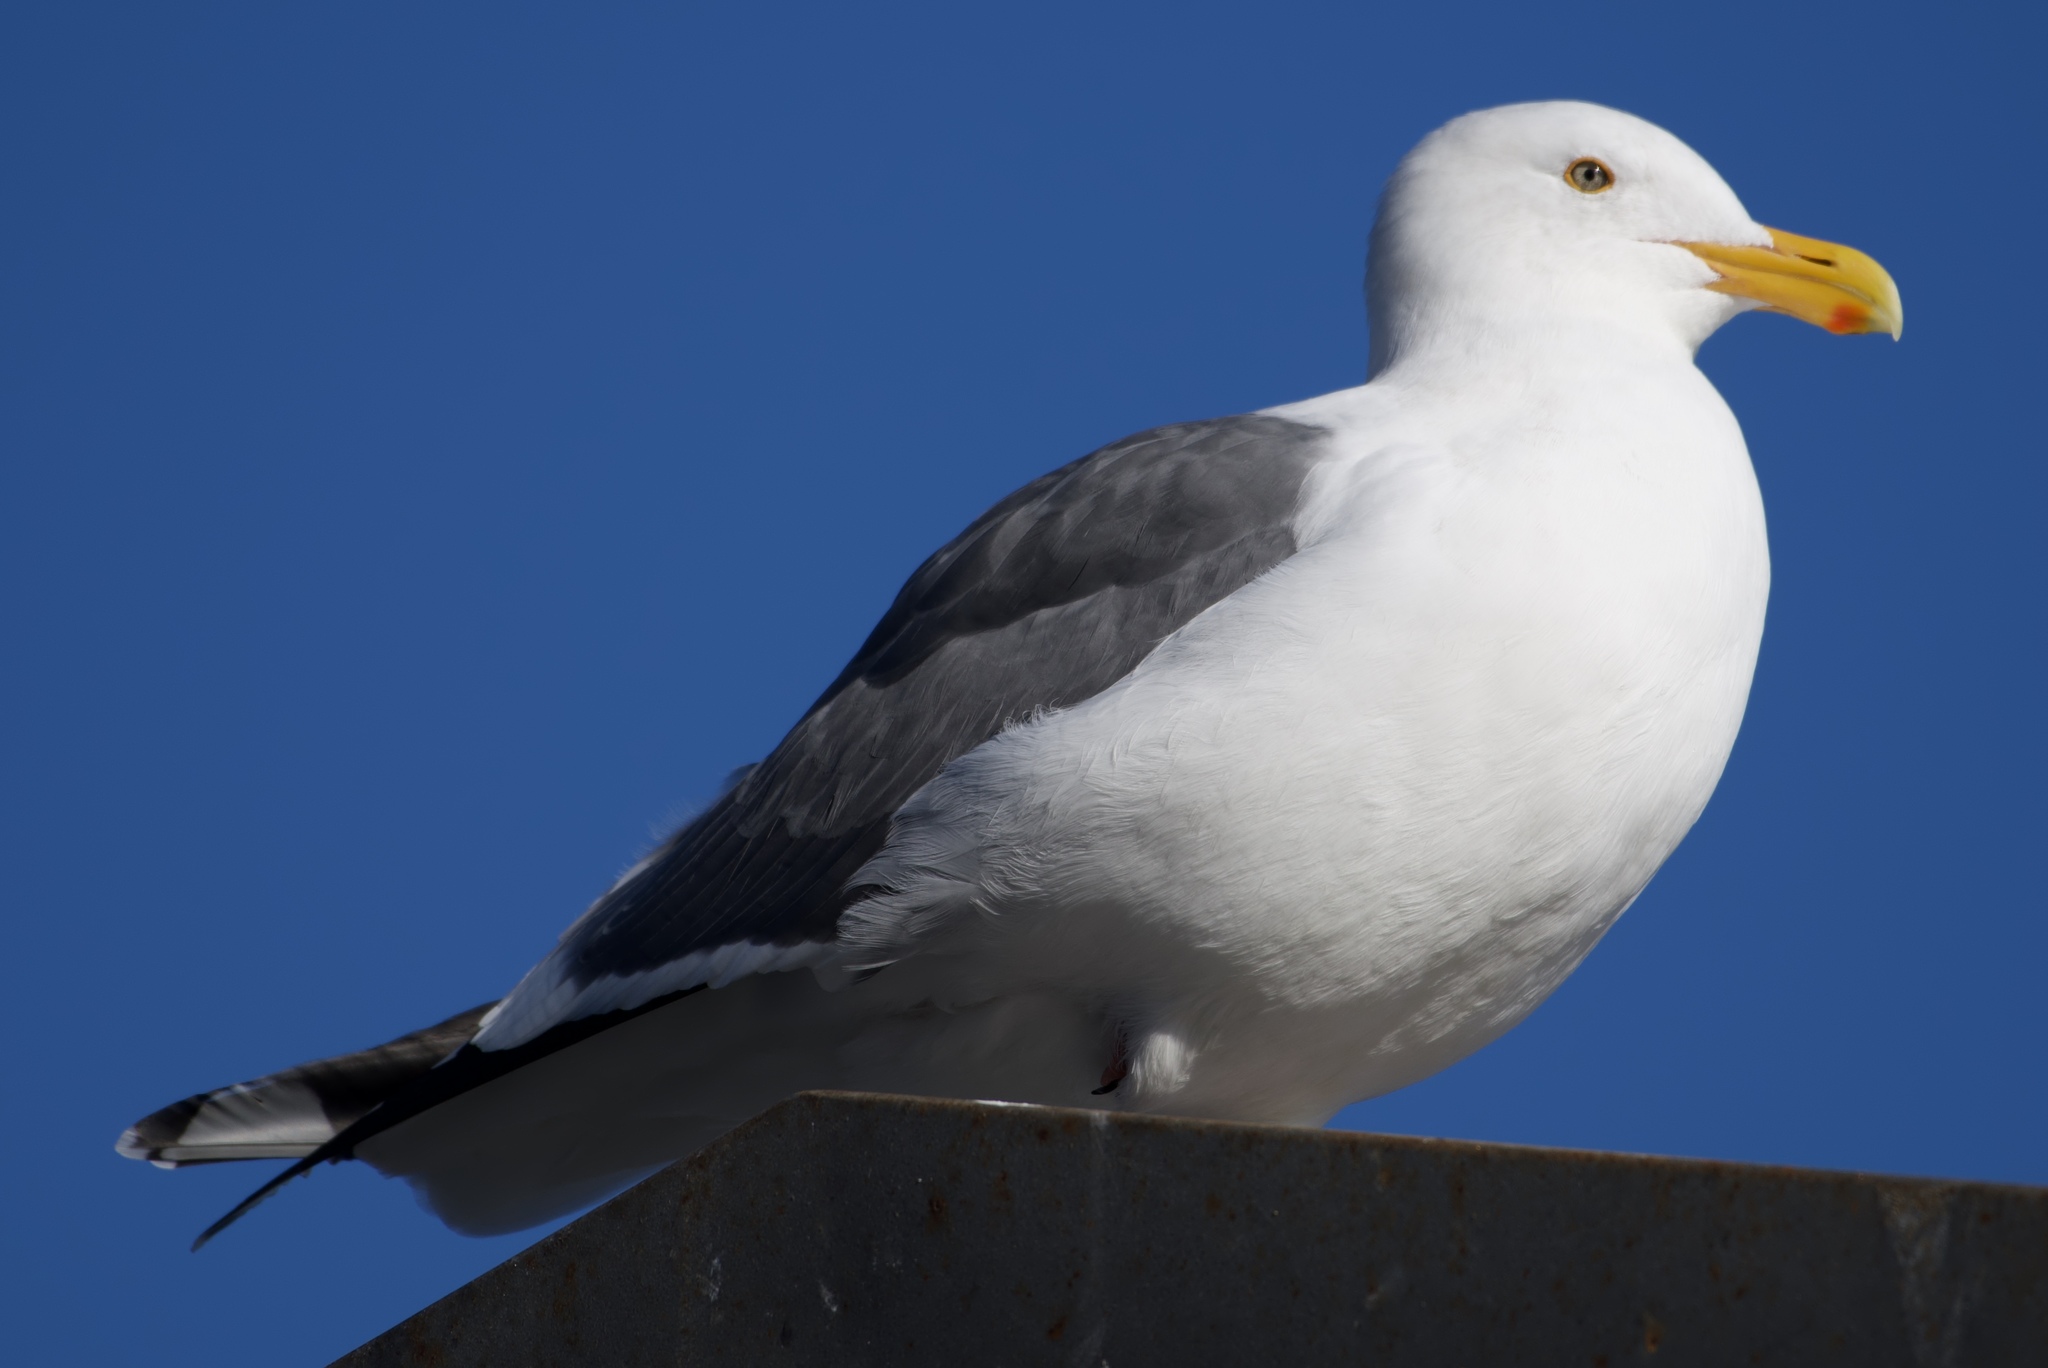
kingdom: Animalia
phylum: Chordata
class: Aves
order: Charadriiformes
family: Laridae
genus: Larus
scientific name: Larus occidentalis
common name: Western gull
